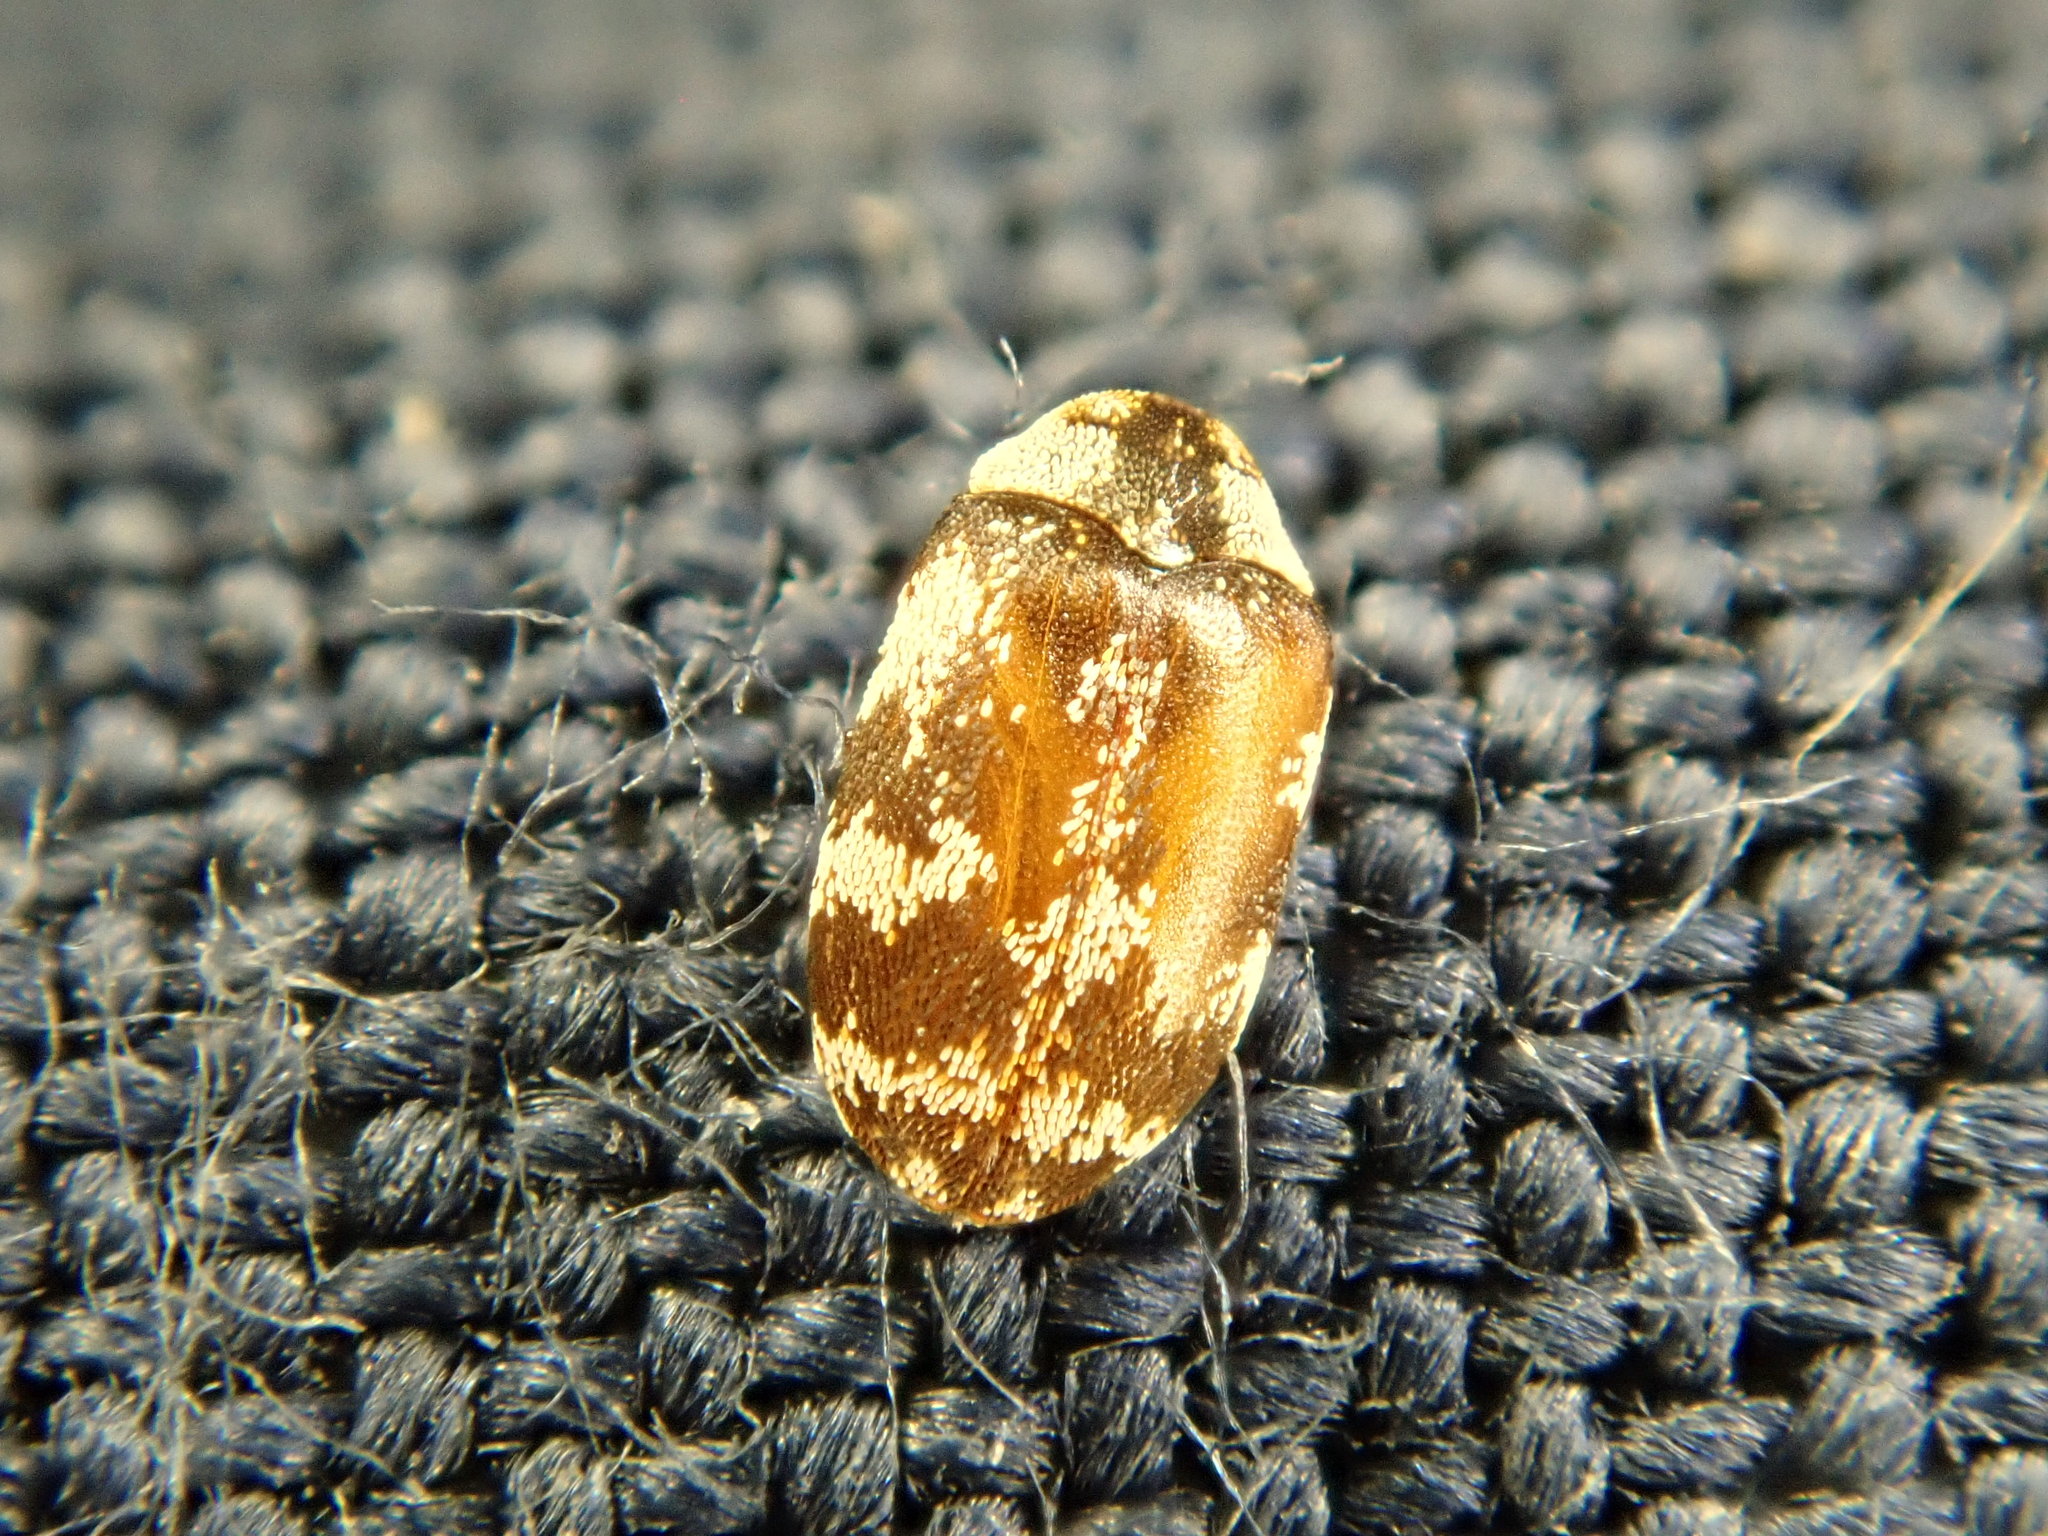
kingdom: Animalia
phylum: Arthropoda
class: Insecta
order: Coleoptera
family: Dermestidae
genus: Anthrenus
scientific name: Anthrenus coloratus
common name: Auger beetle
